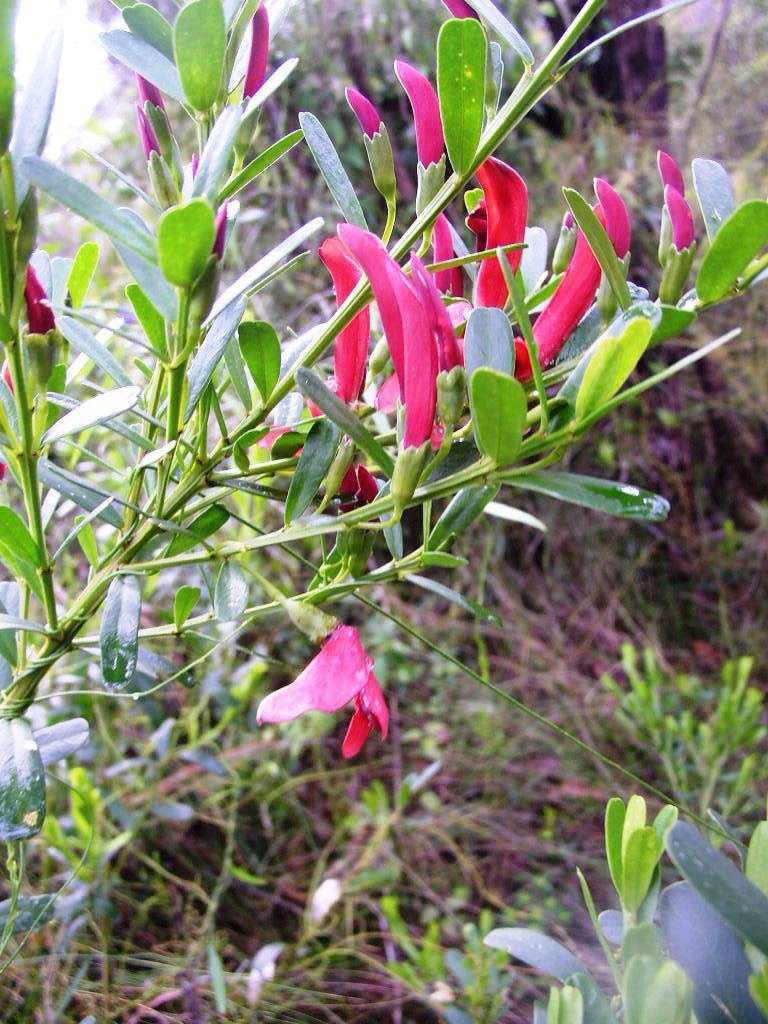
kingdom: Plantae
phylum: Tracheophyta
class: Magnoliopsida
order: Fabales
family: Fabaceae
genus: Templetonia
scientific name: Templetonia retusa
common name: Cockies'-tongue
